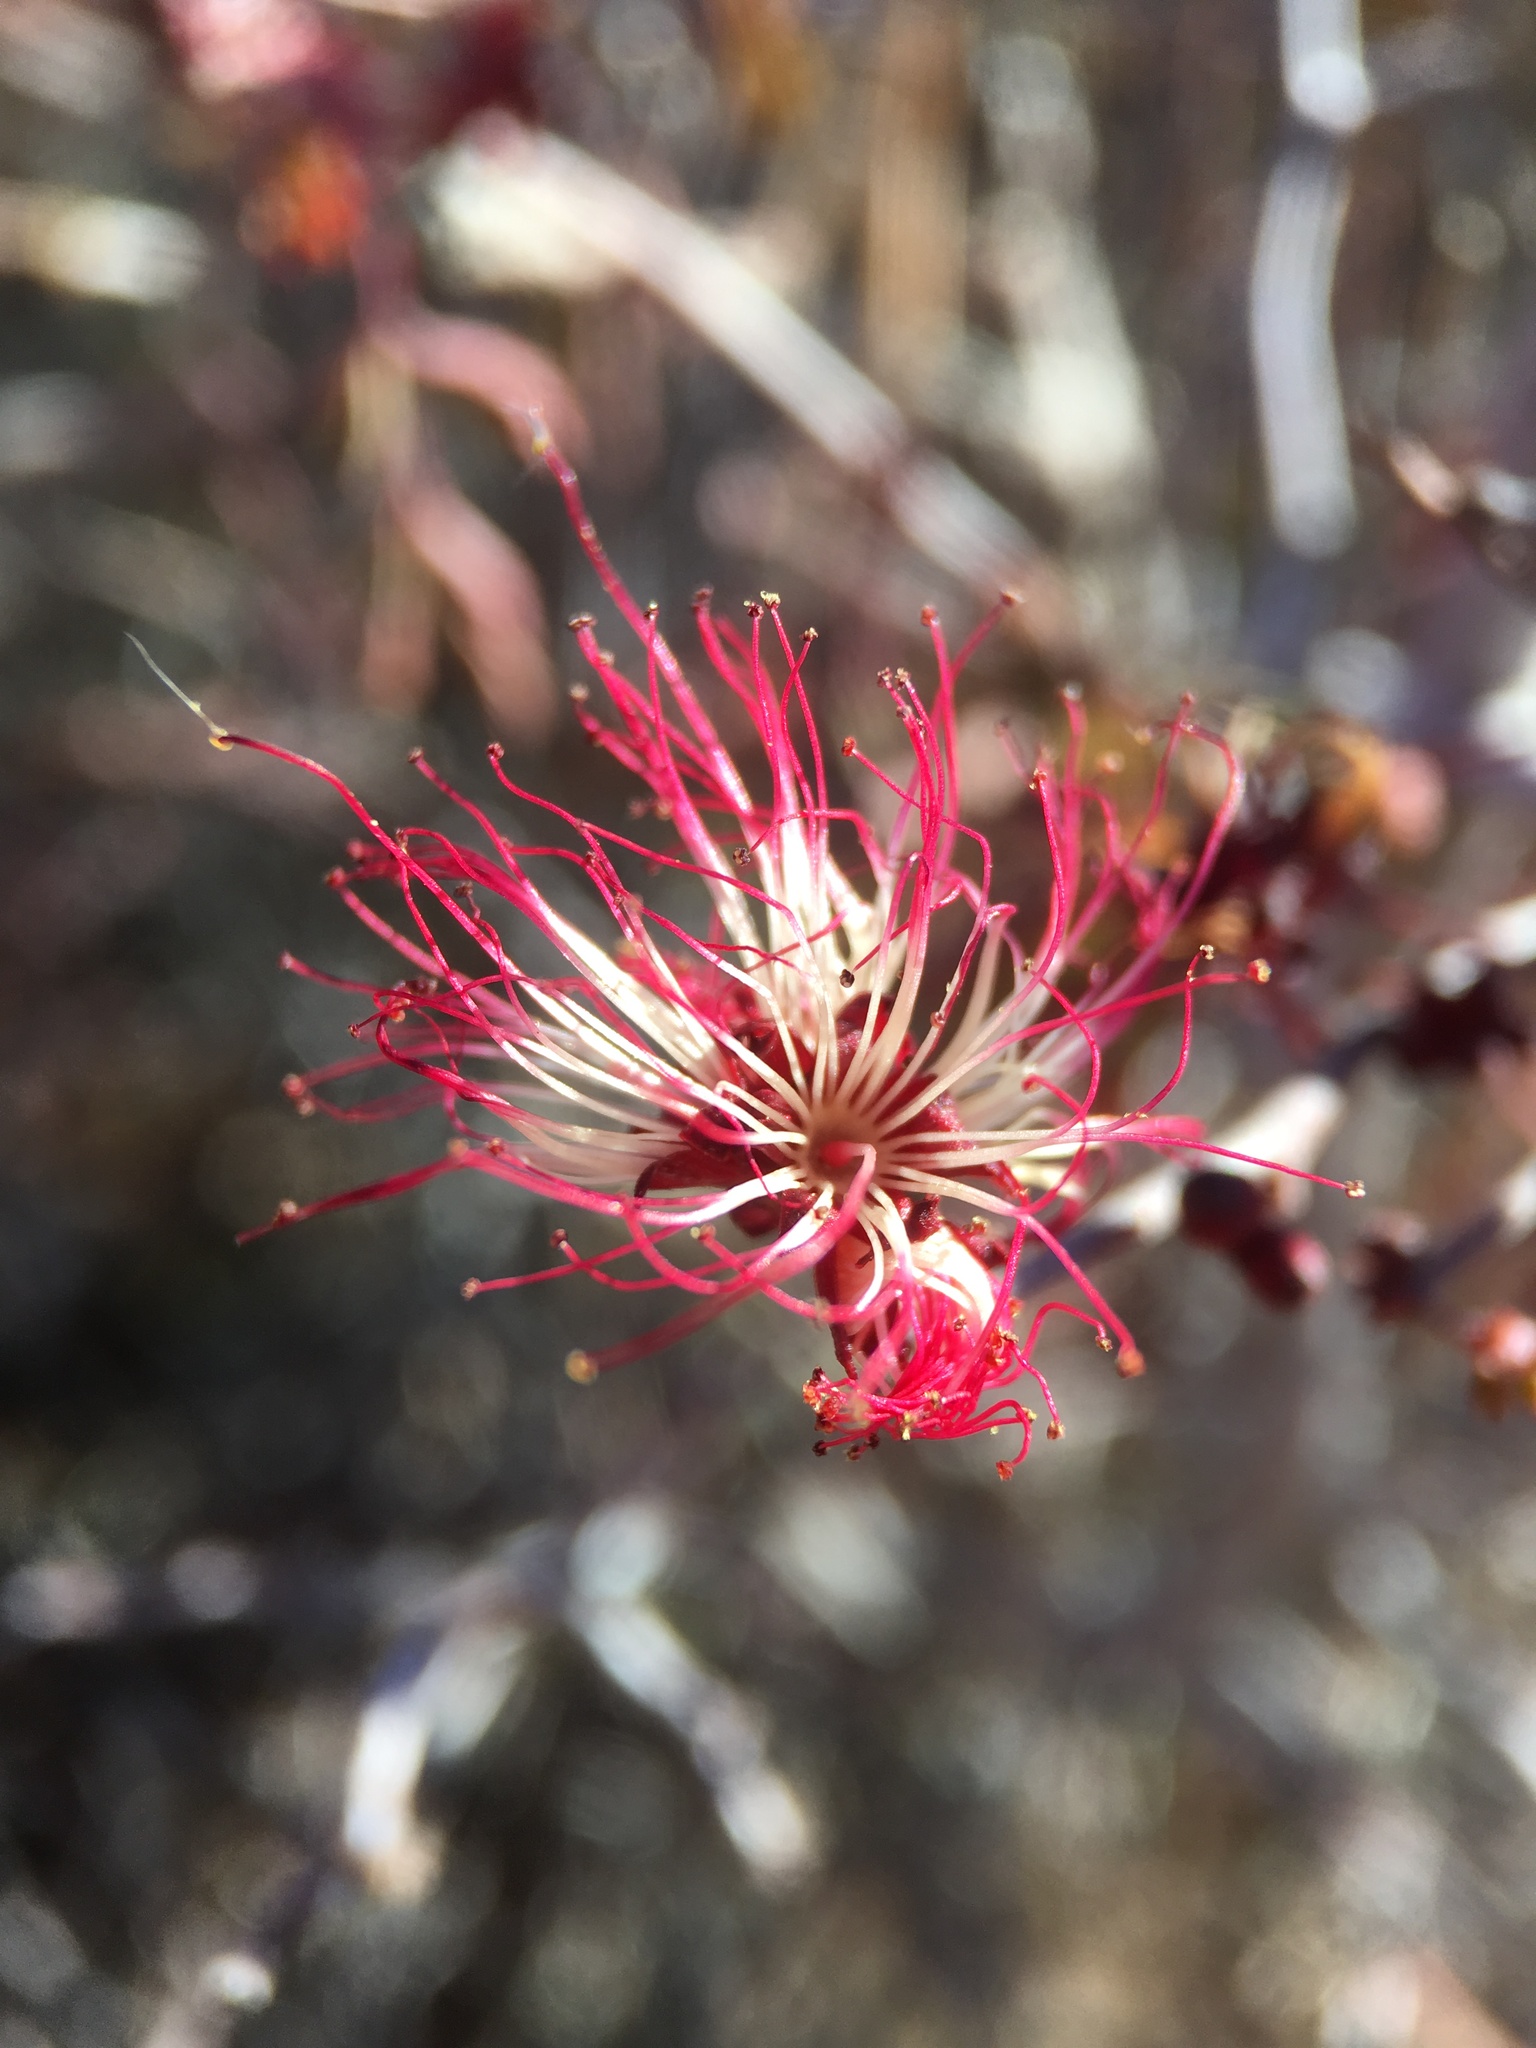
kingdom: Plantae
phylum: Tracheophyta
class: Magnoliopsida
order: Fabales
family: Fabaceae
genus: Calliandra
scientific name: Calliandra eriophylla
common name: Fairy-duster
